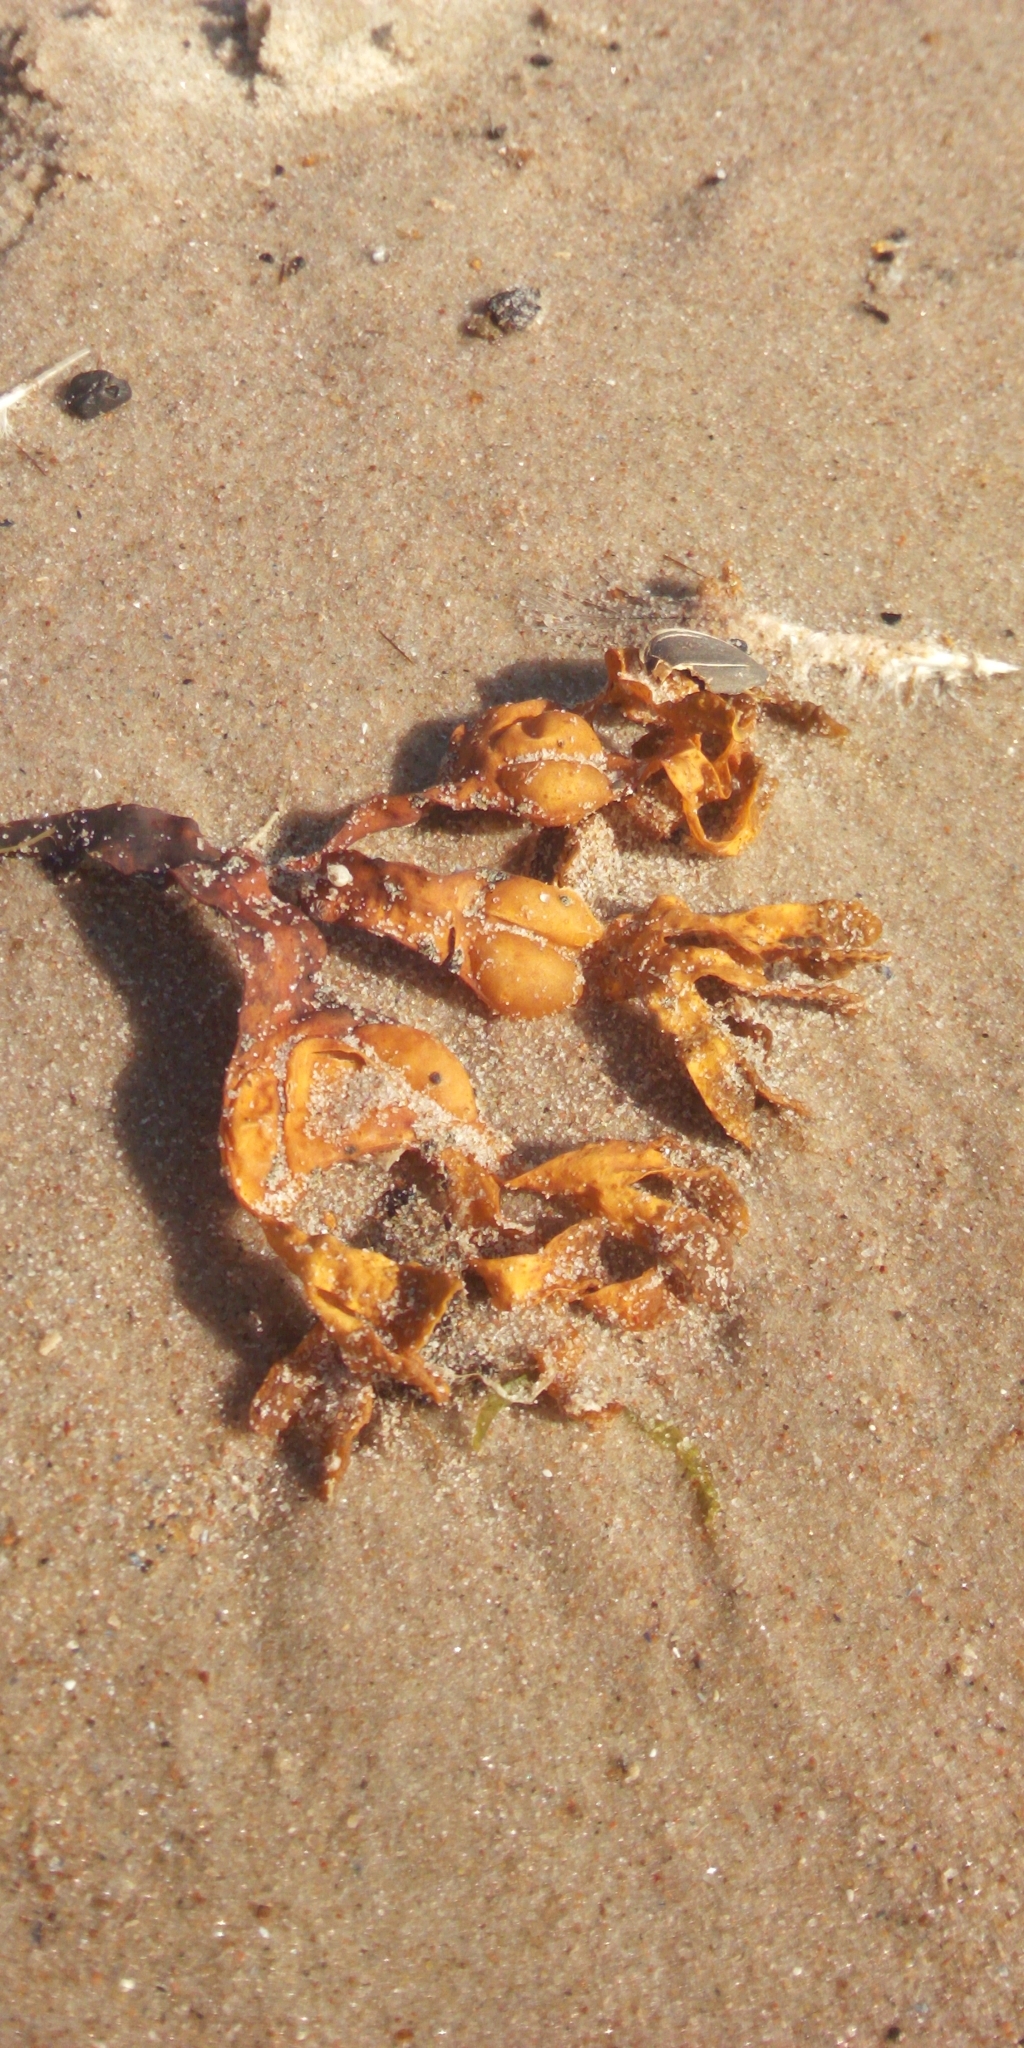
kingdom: Chromista
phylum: Ochrophyta
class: Phaeophyceae
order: Fucales
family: Fucaceae
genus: Fucus
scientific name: Fucus vesiculosus
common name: Bladder wrack
